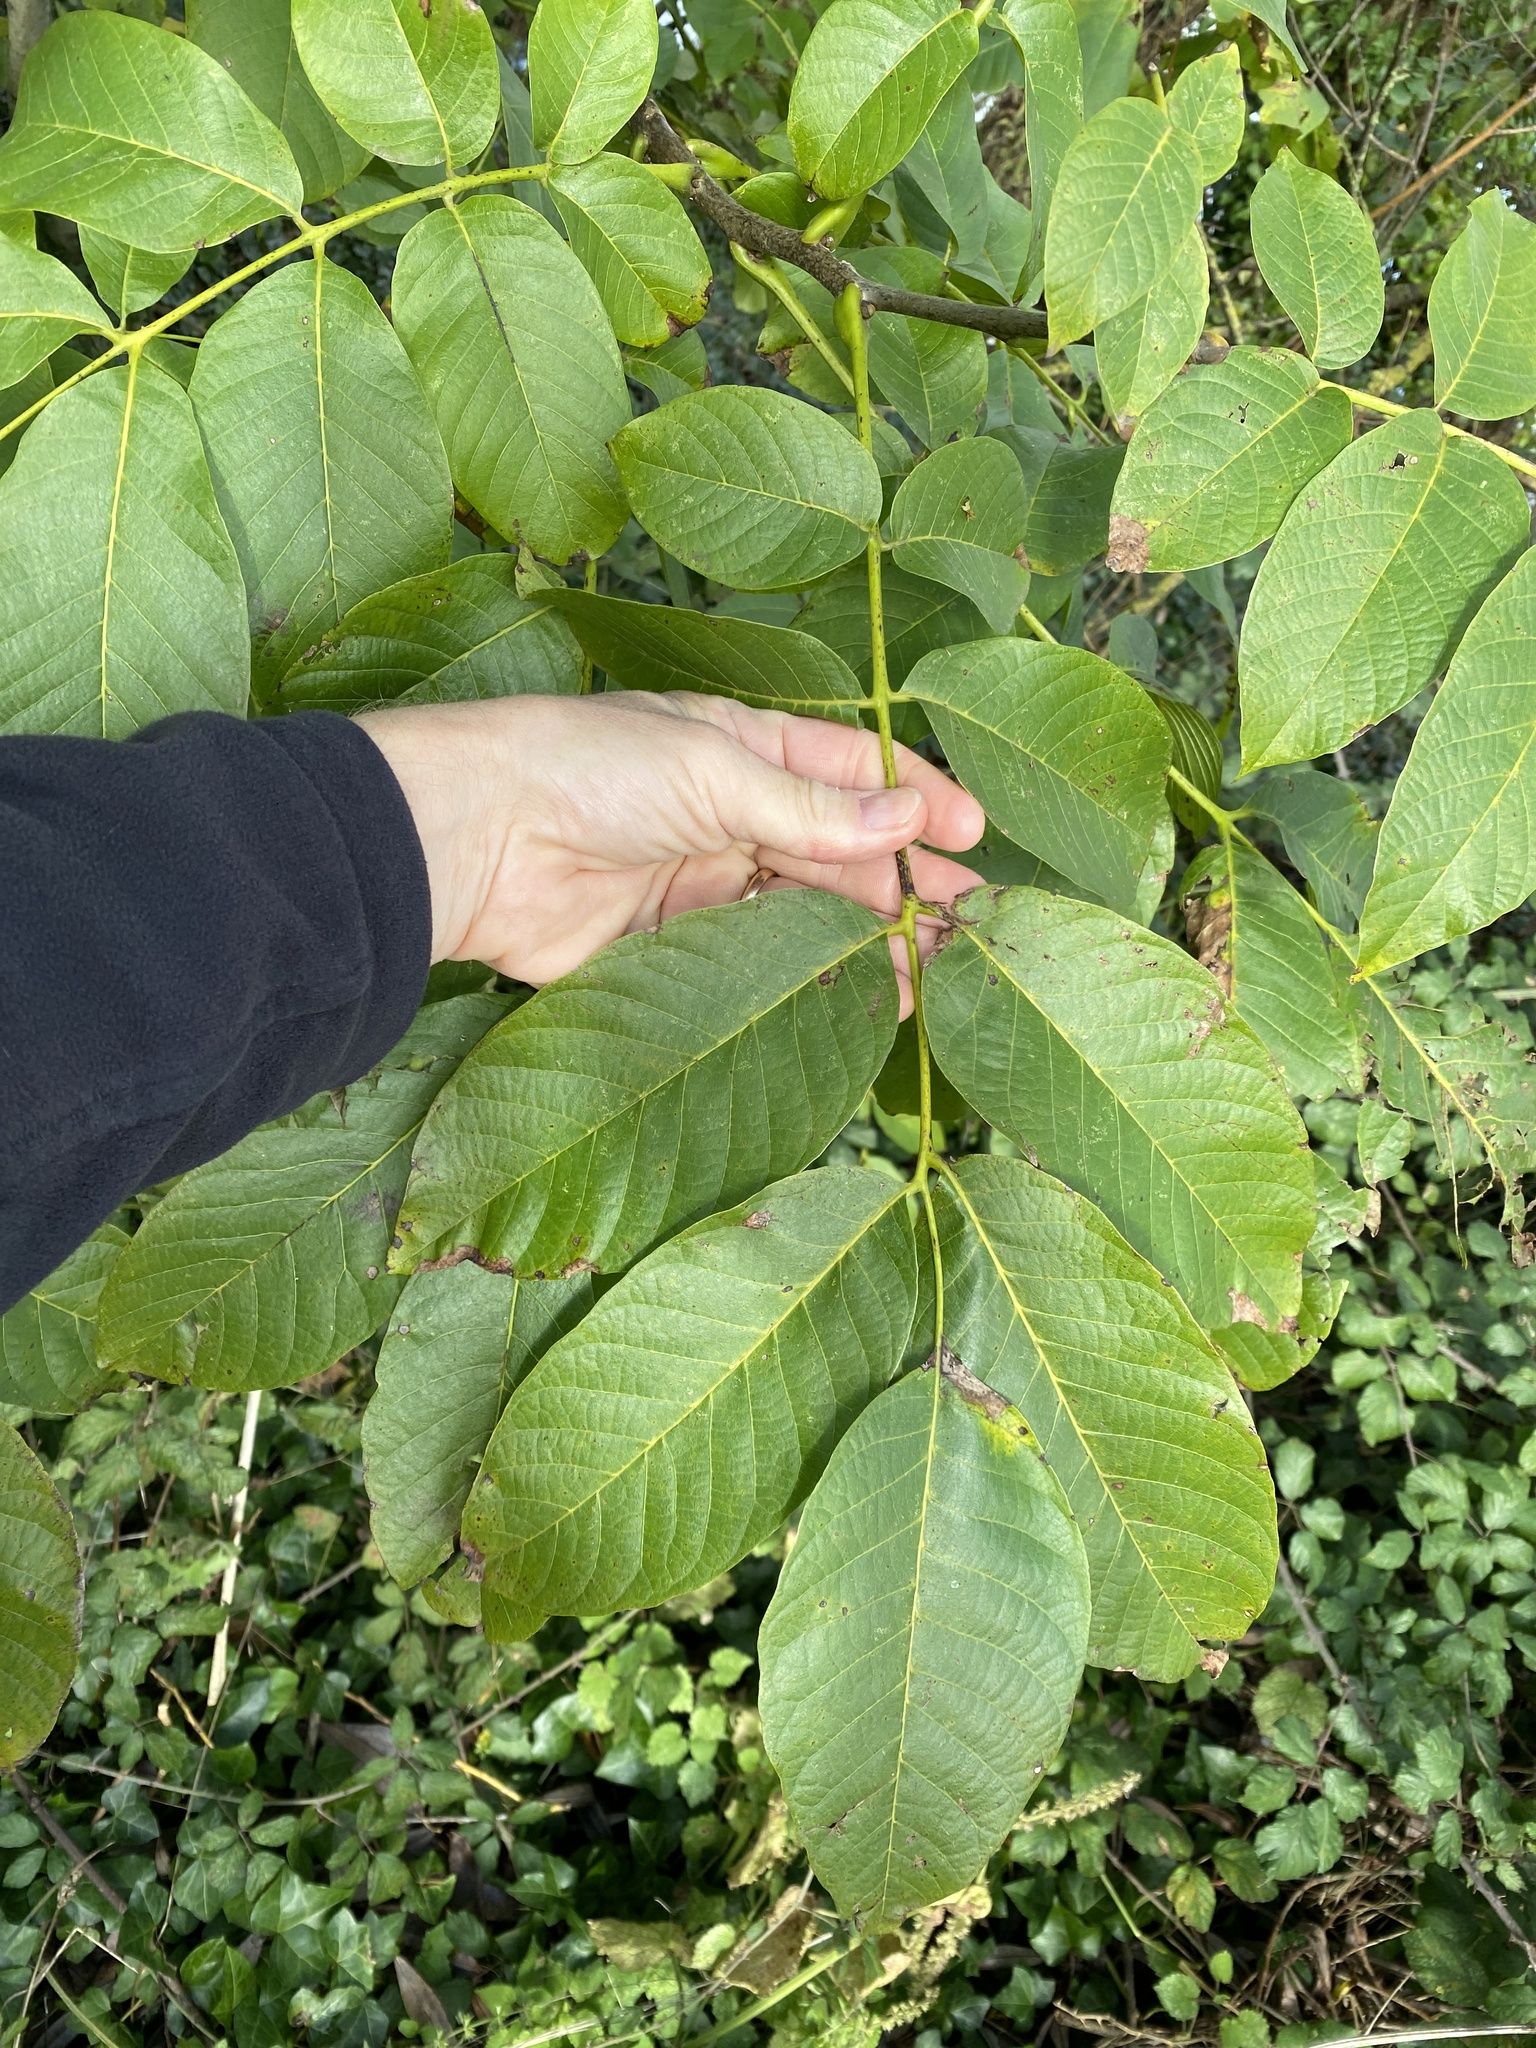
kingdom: Plantae
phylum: Tracheophyta
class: Magnoliopsida
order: Fagales
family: Juglandaceae
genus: Juglans
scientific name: Juglans regia
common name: Walnut
